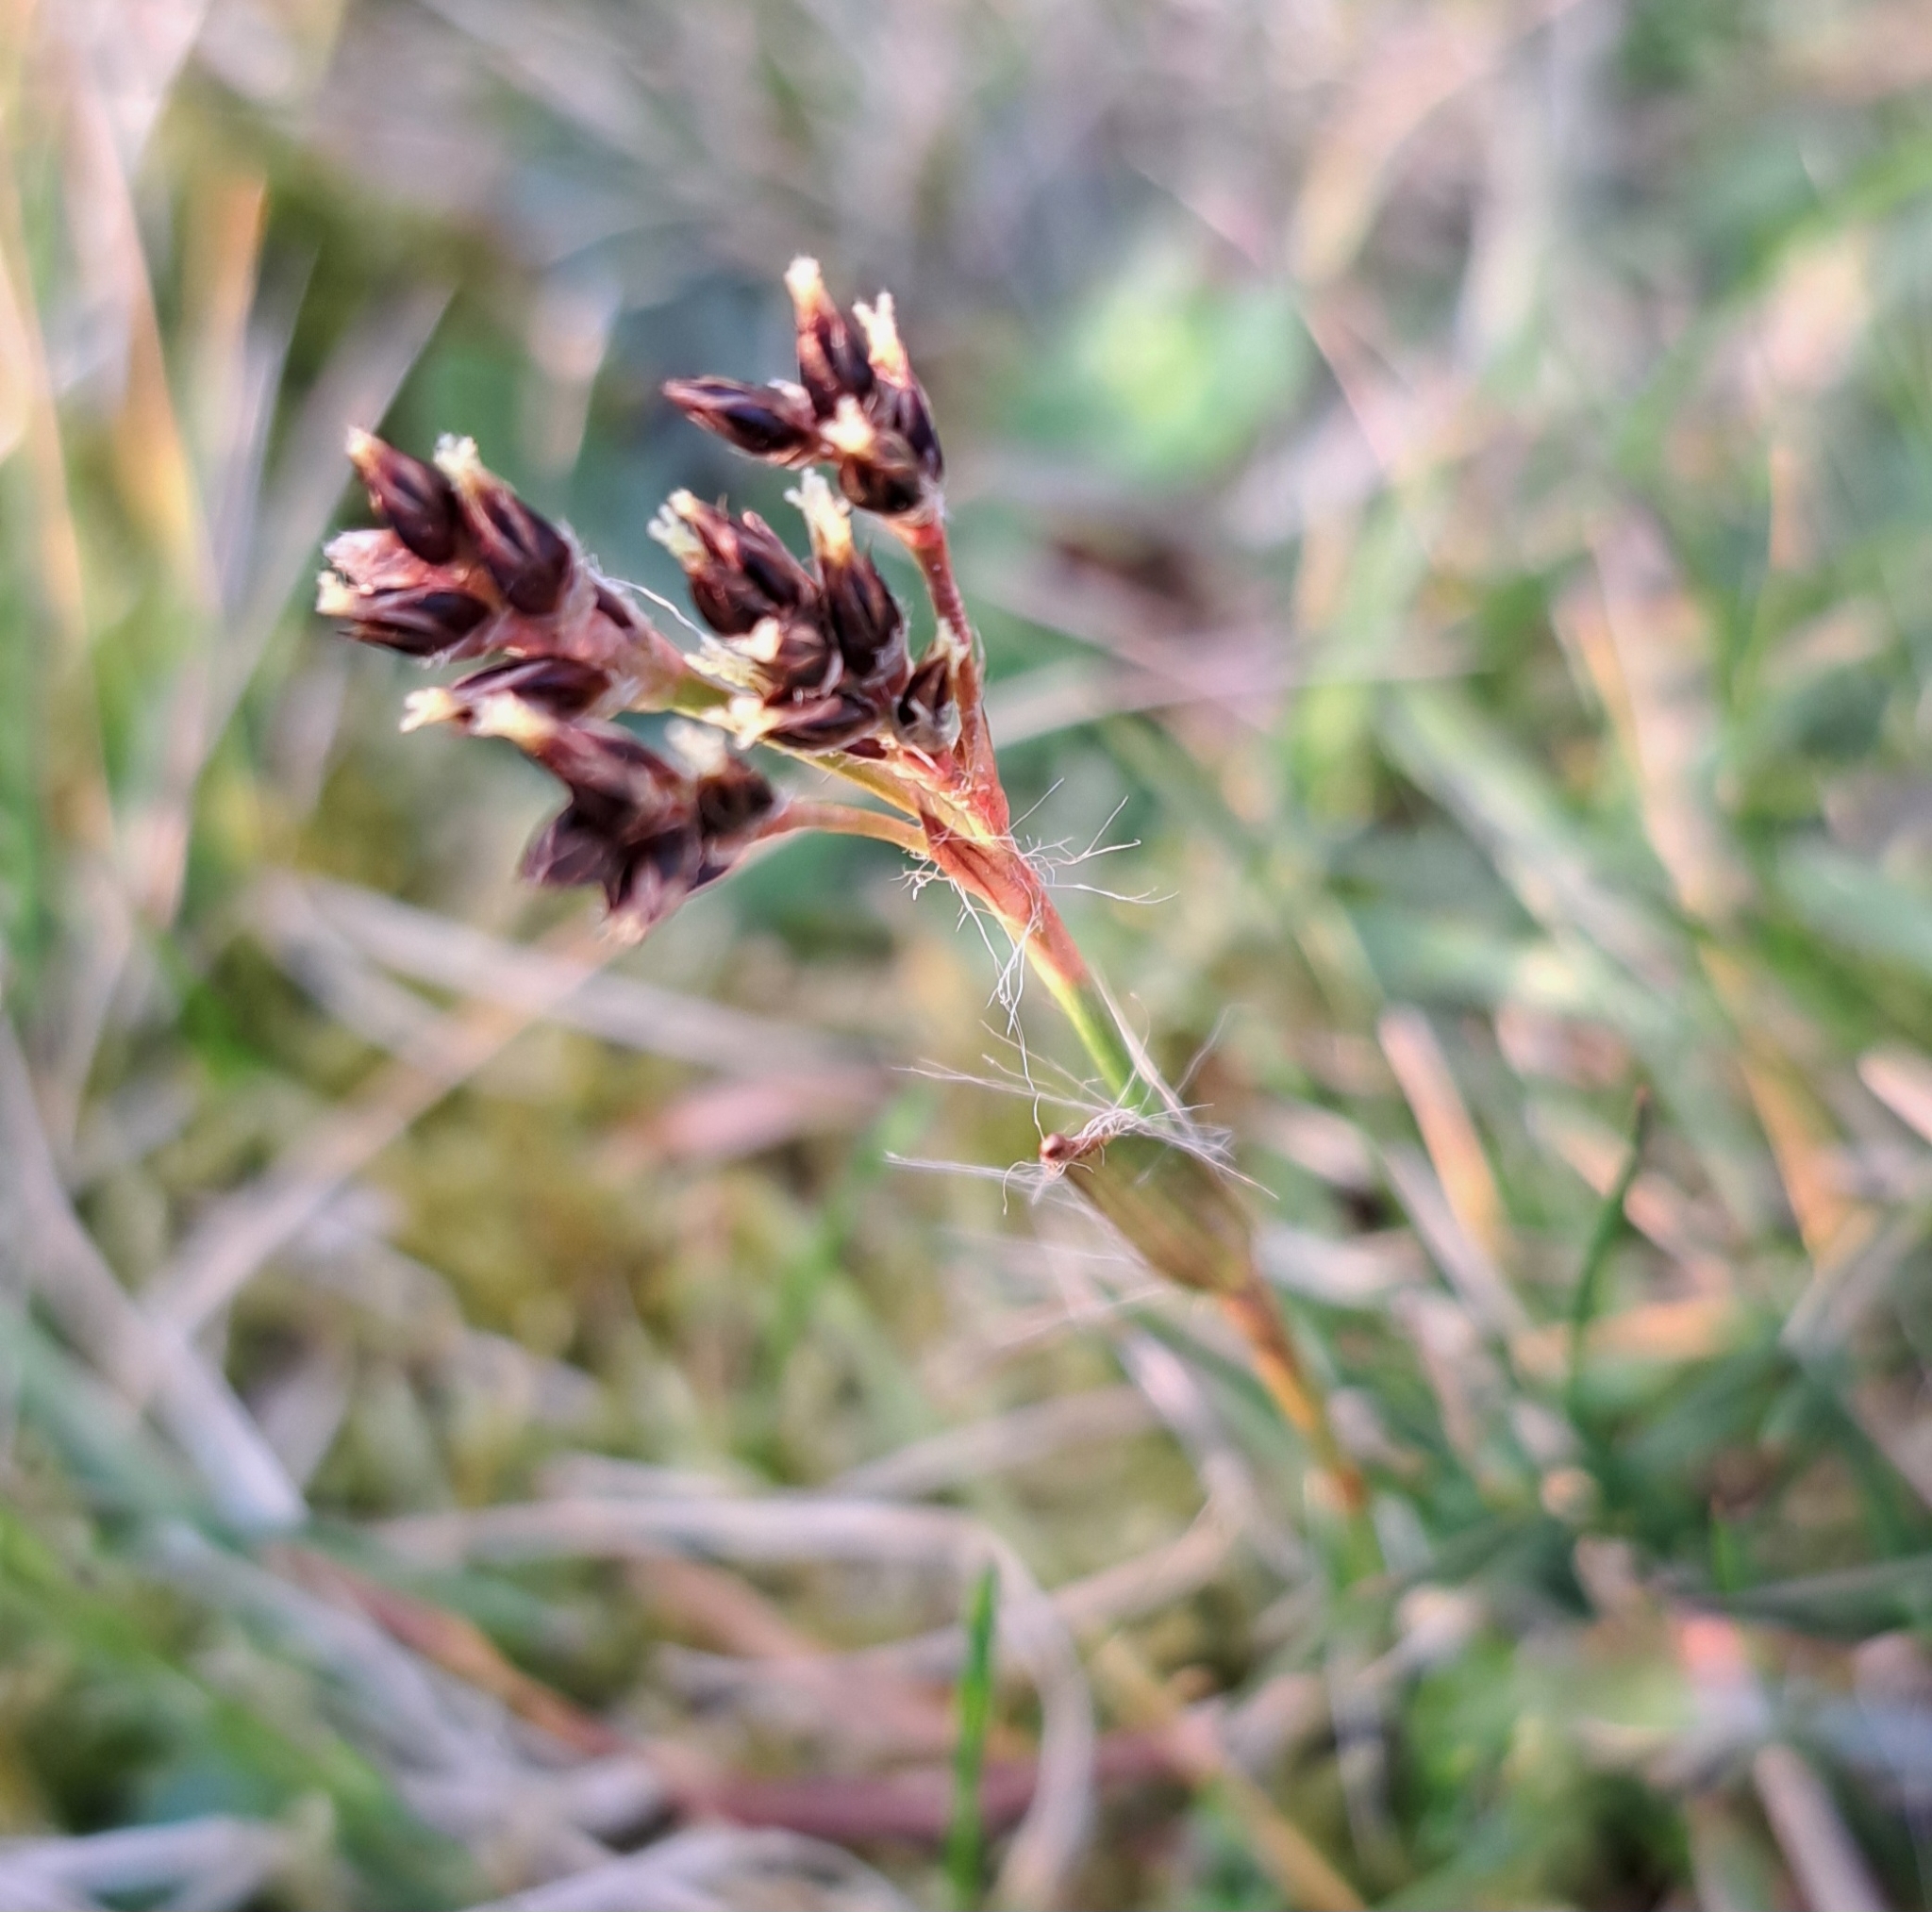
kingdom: Plantae
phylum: Tracheophyta
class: Liliopsida
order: Poales
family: Juncaceae
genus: Luzula
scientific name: Luzula campestris
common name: Field wood-rush
